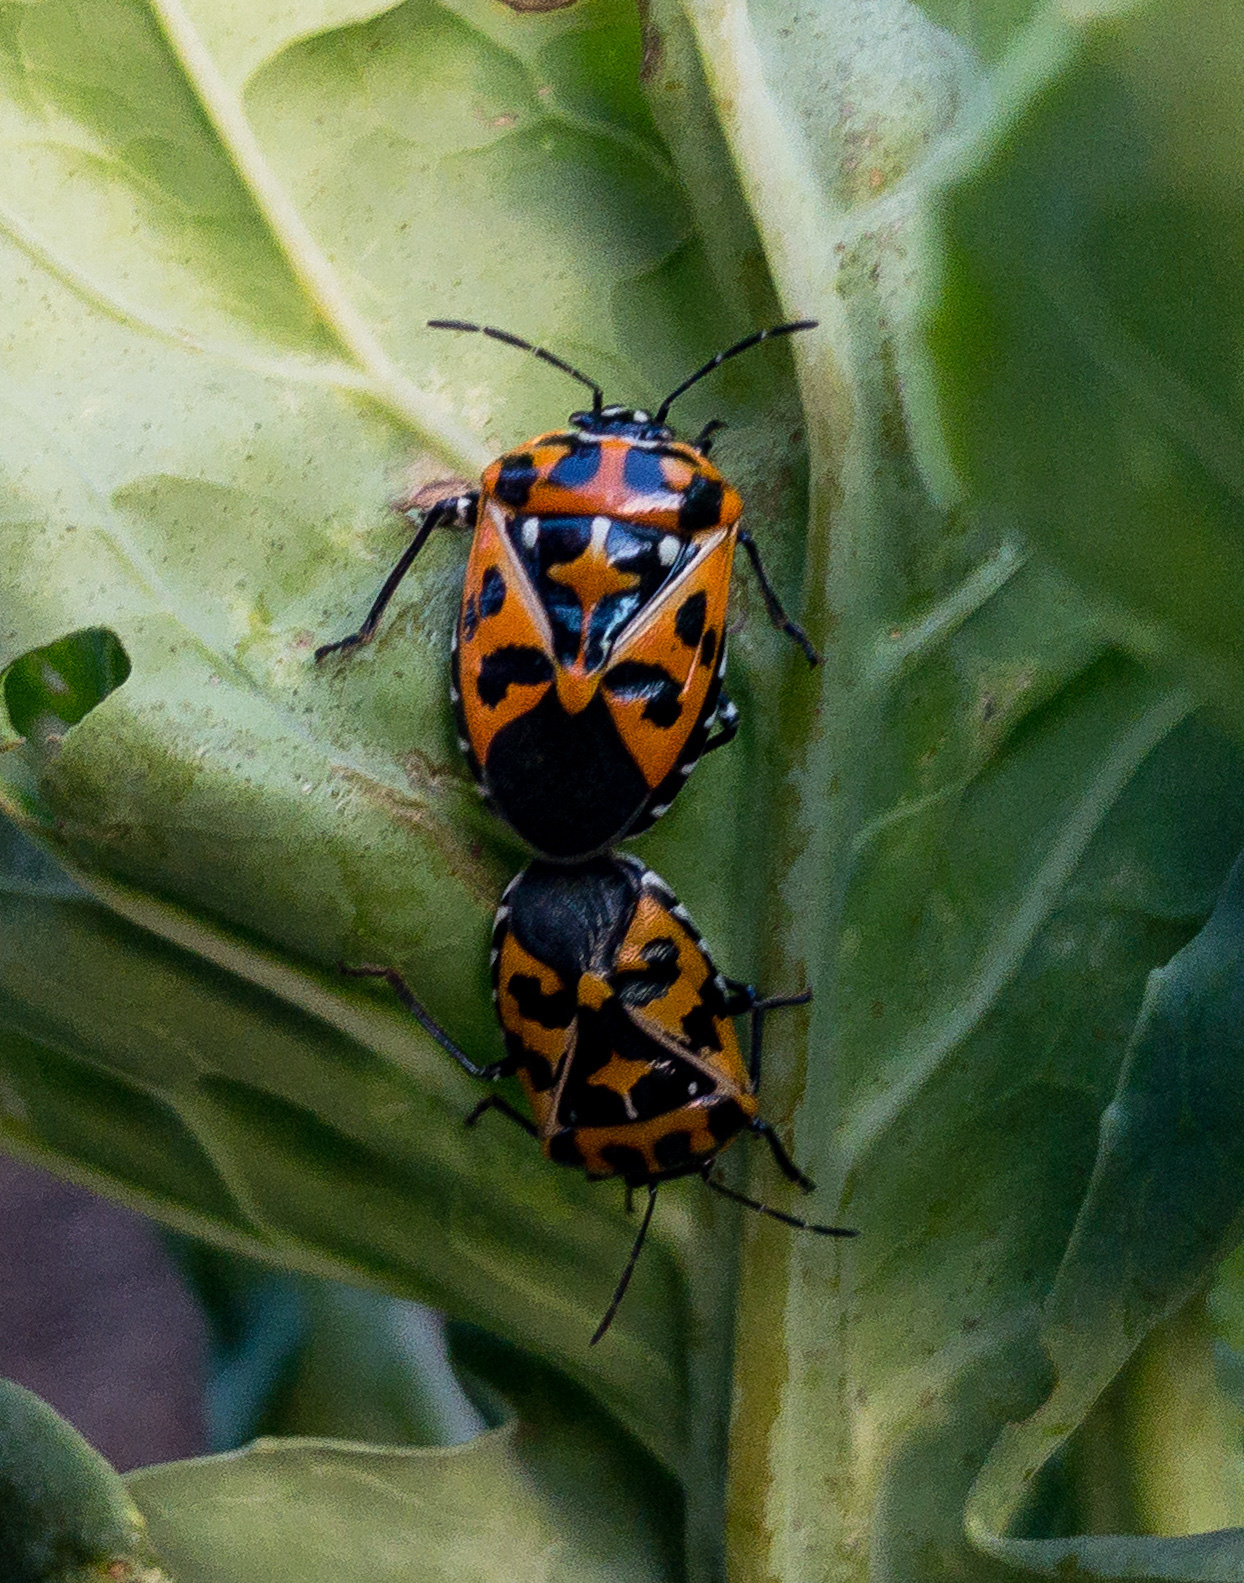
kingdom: Animalia
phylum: Arthropoda
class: Insecta
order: Hemiptera
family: Pentatomidae
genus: Murgantia
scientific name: Murgantia histrionica
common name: Harlequin bug
